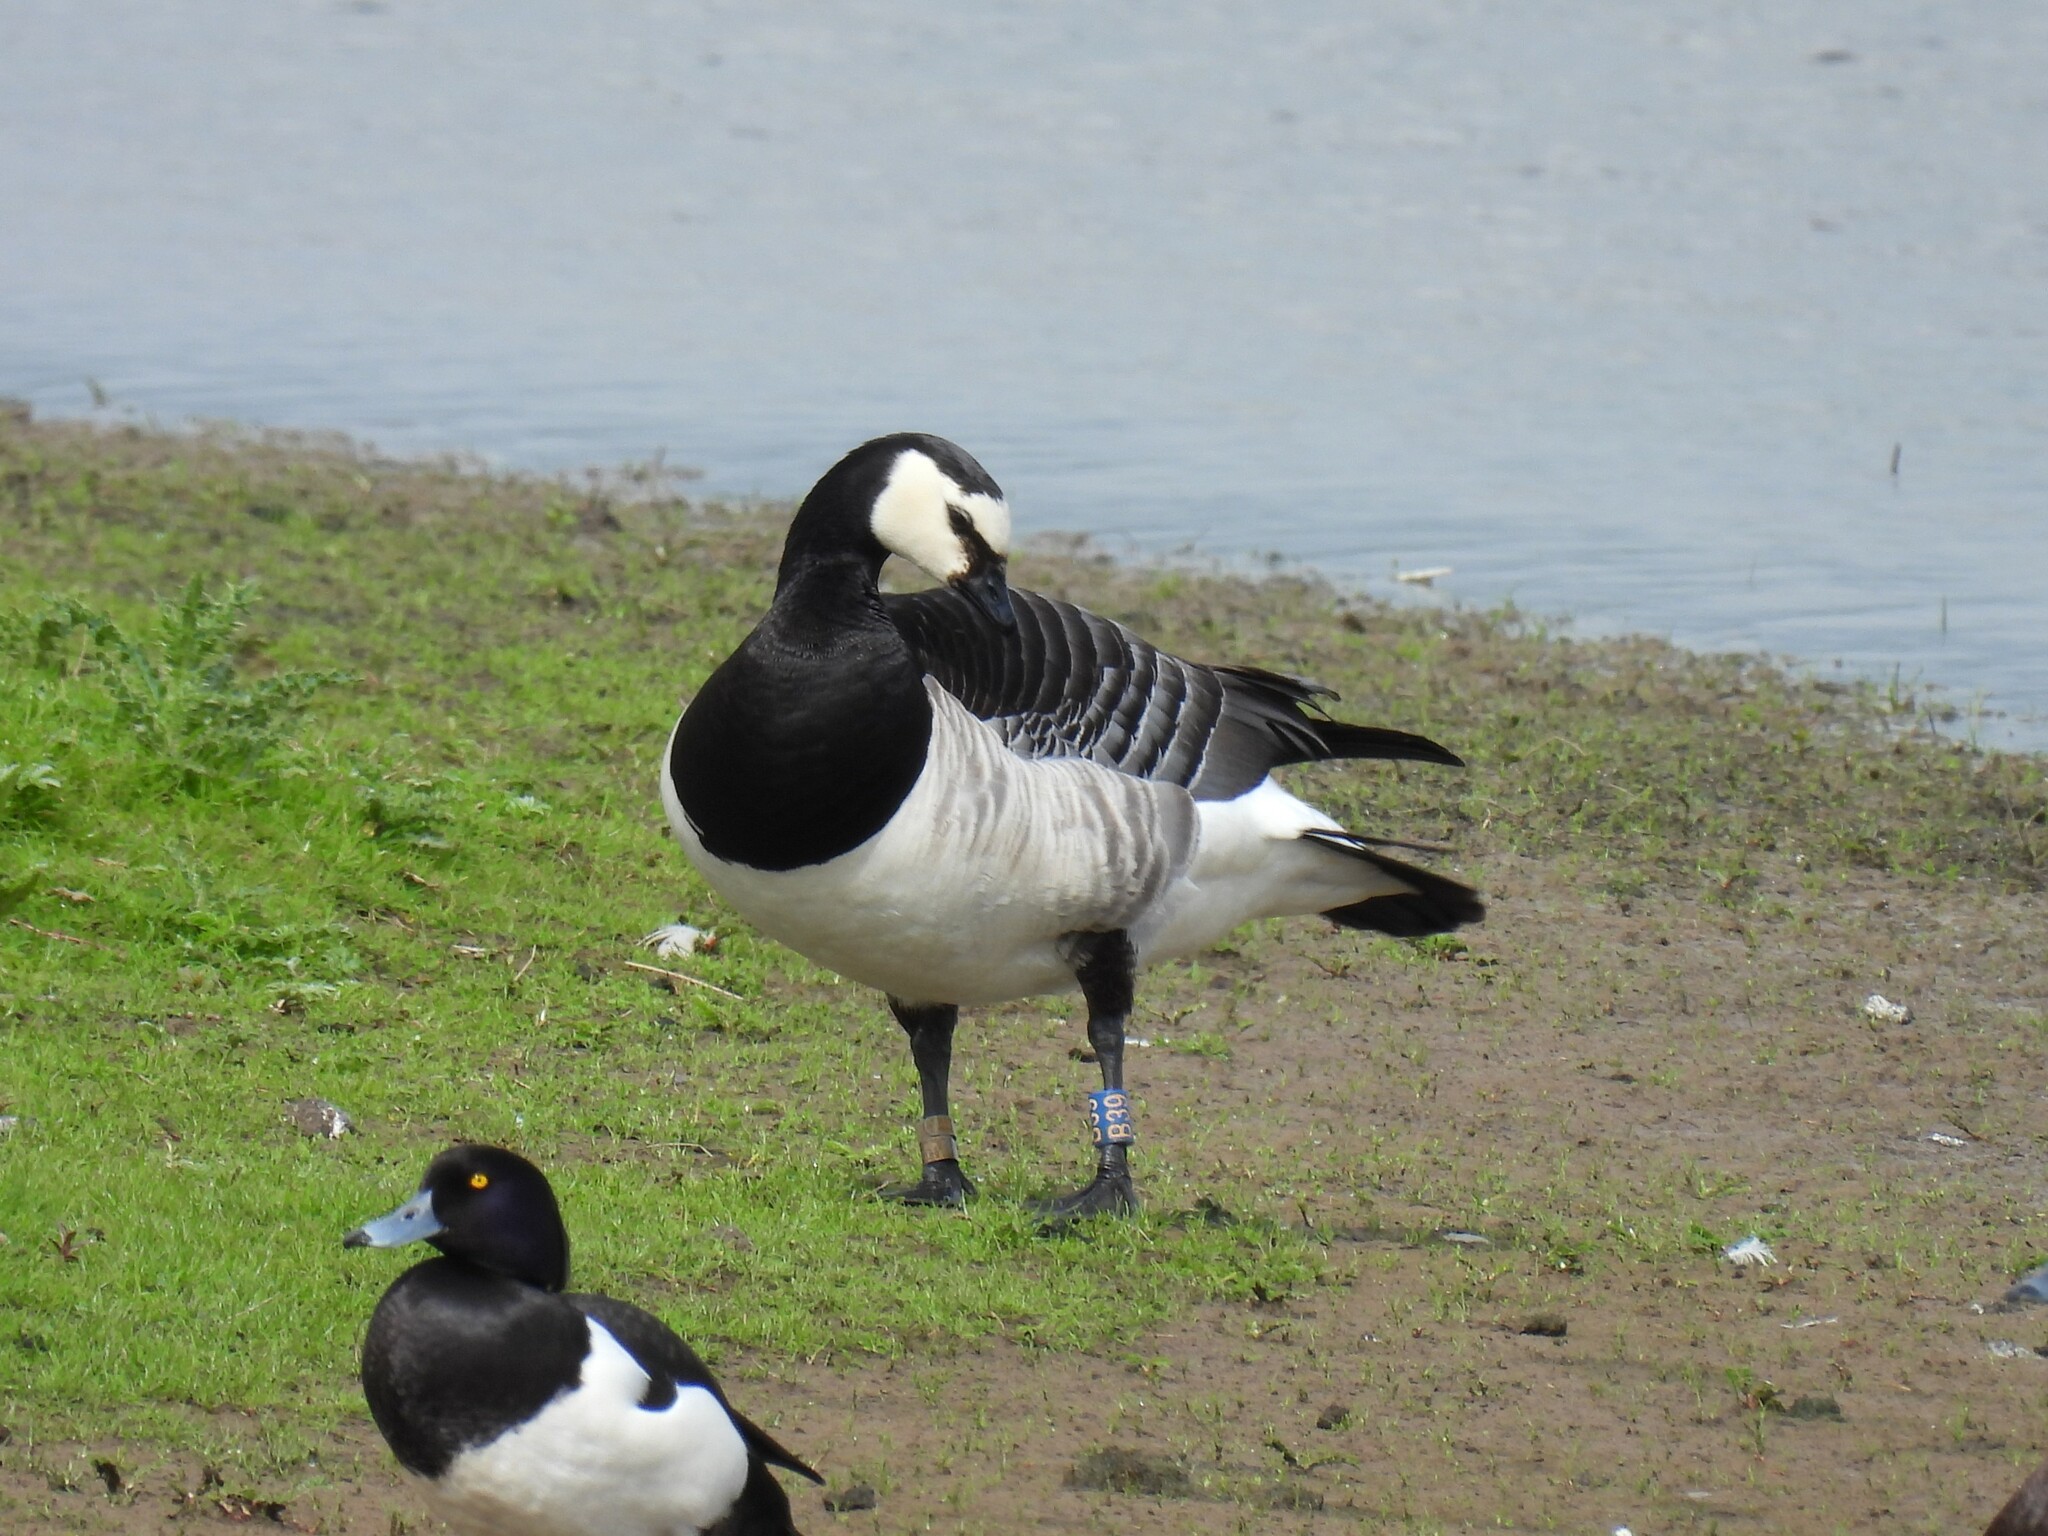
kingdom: Animalia
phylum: Chordata
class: Aves
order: Anseriformes
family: Anatidae
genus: Branta
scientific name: Branta leucopsis
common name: Barnacle goose
